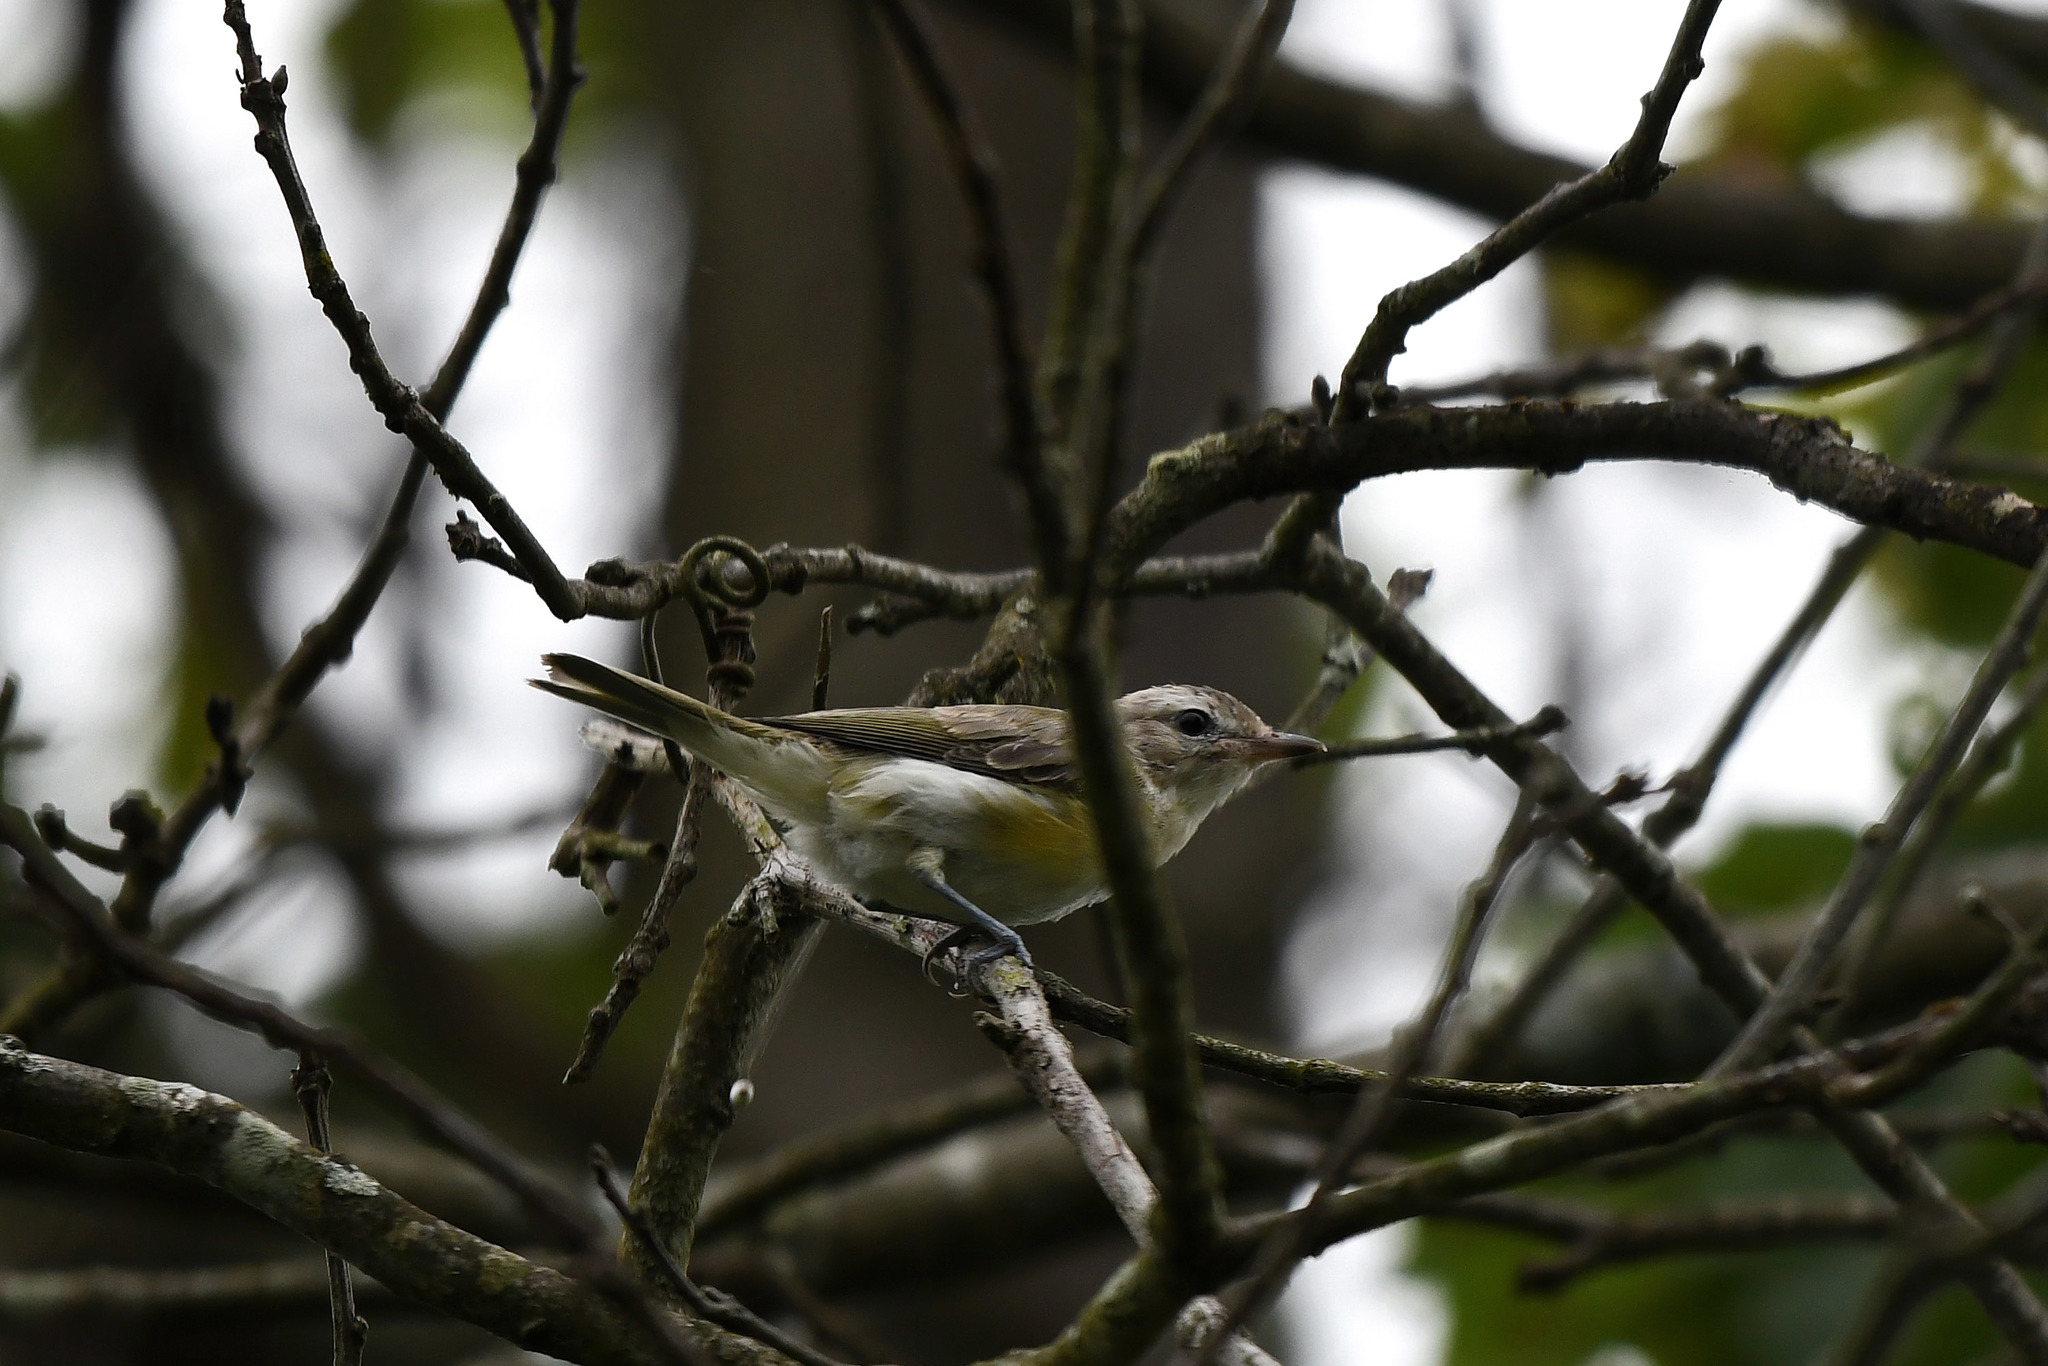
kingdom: Animalia
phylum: Chordata
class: Aves
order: Passeriformes
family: Vireonidae
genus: Vireo
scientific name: Vireo gilvus
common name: Warbling vireo
